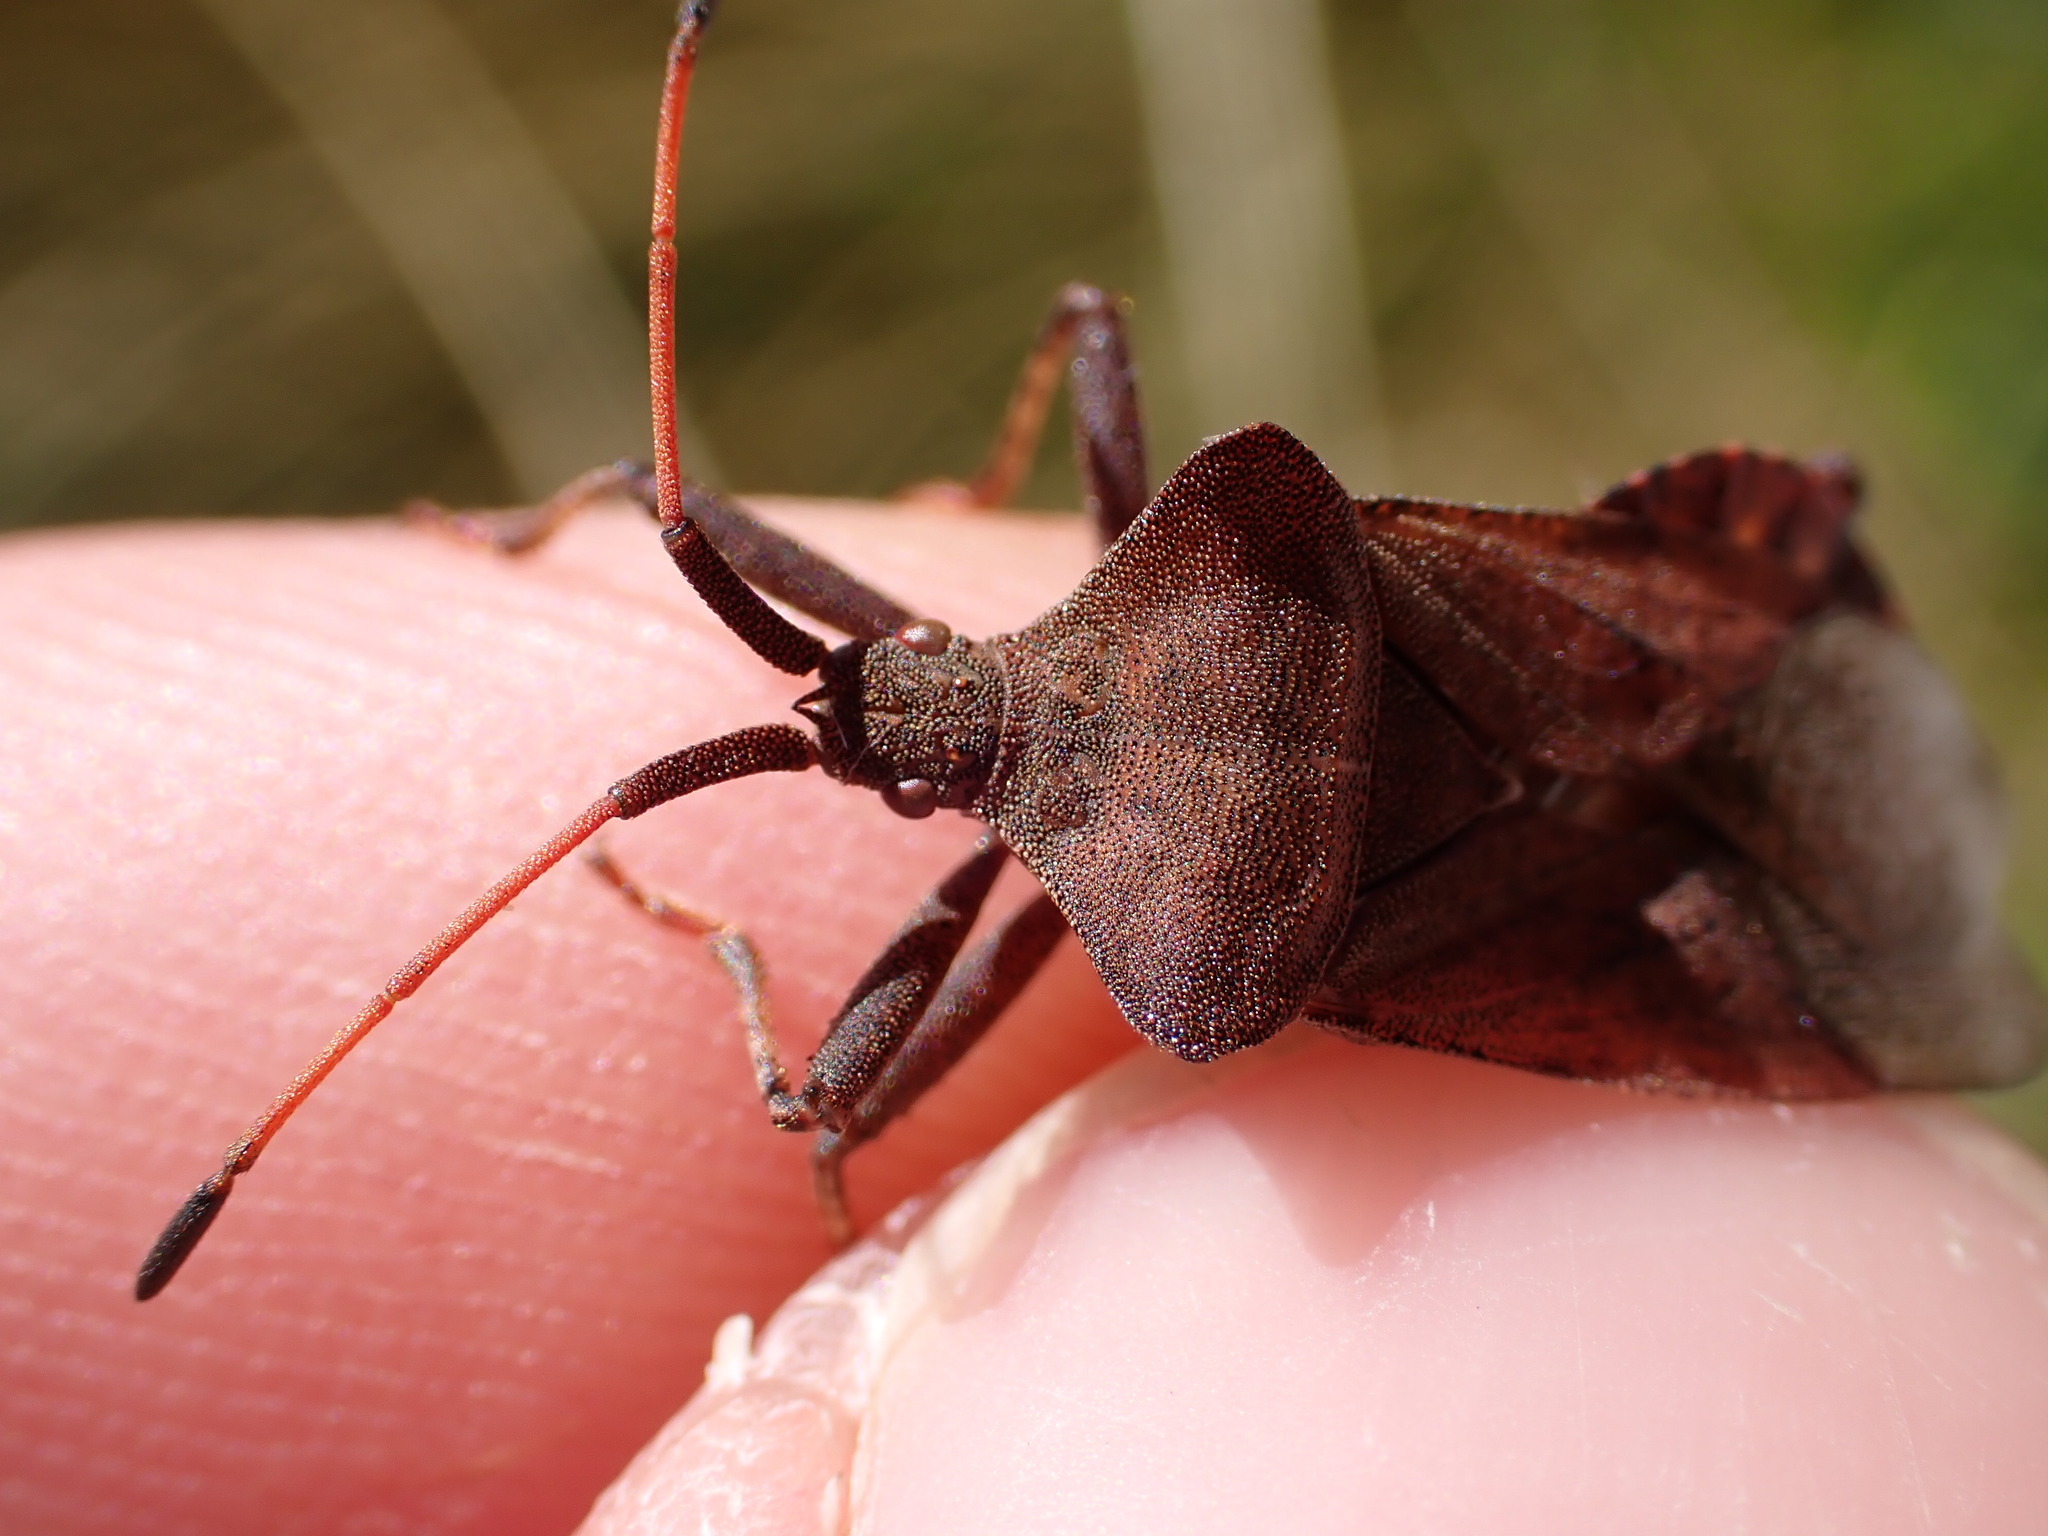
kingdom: Animalia
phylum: Arthropoda
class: Insecta
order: Hemiptera
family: Coreidae
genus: Coreus
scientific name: Coreus marginatus
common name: Dock bug
